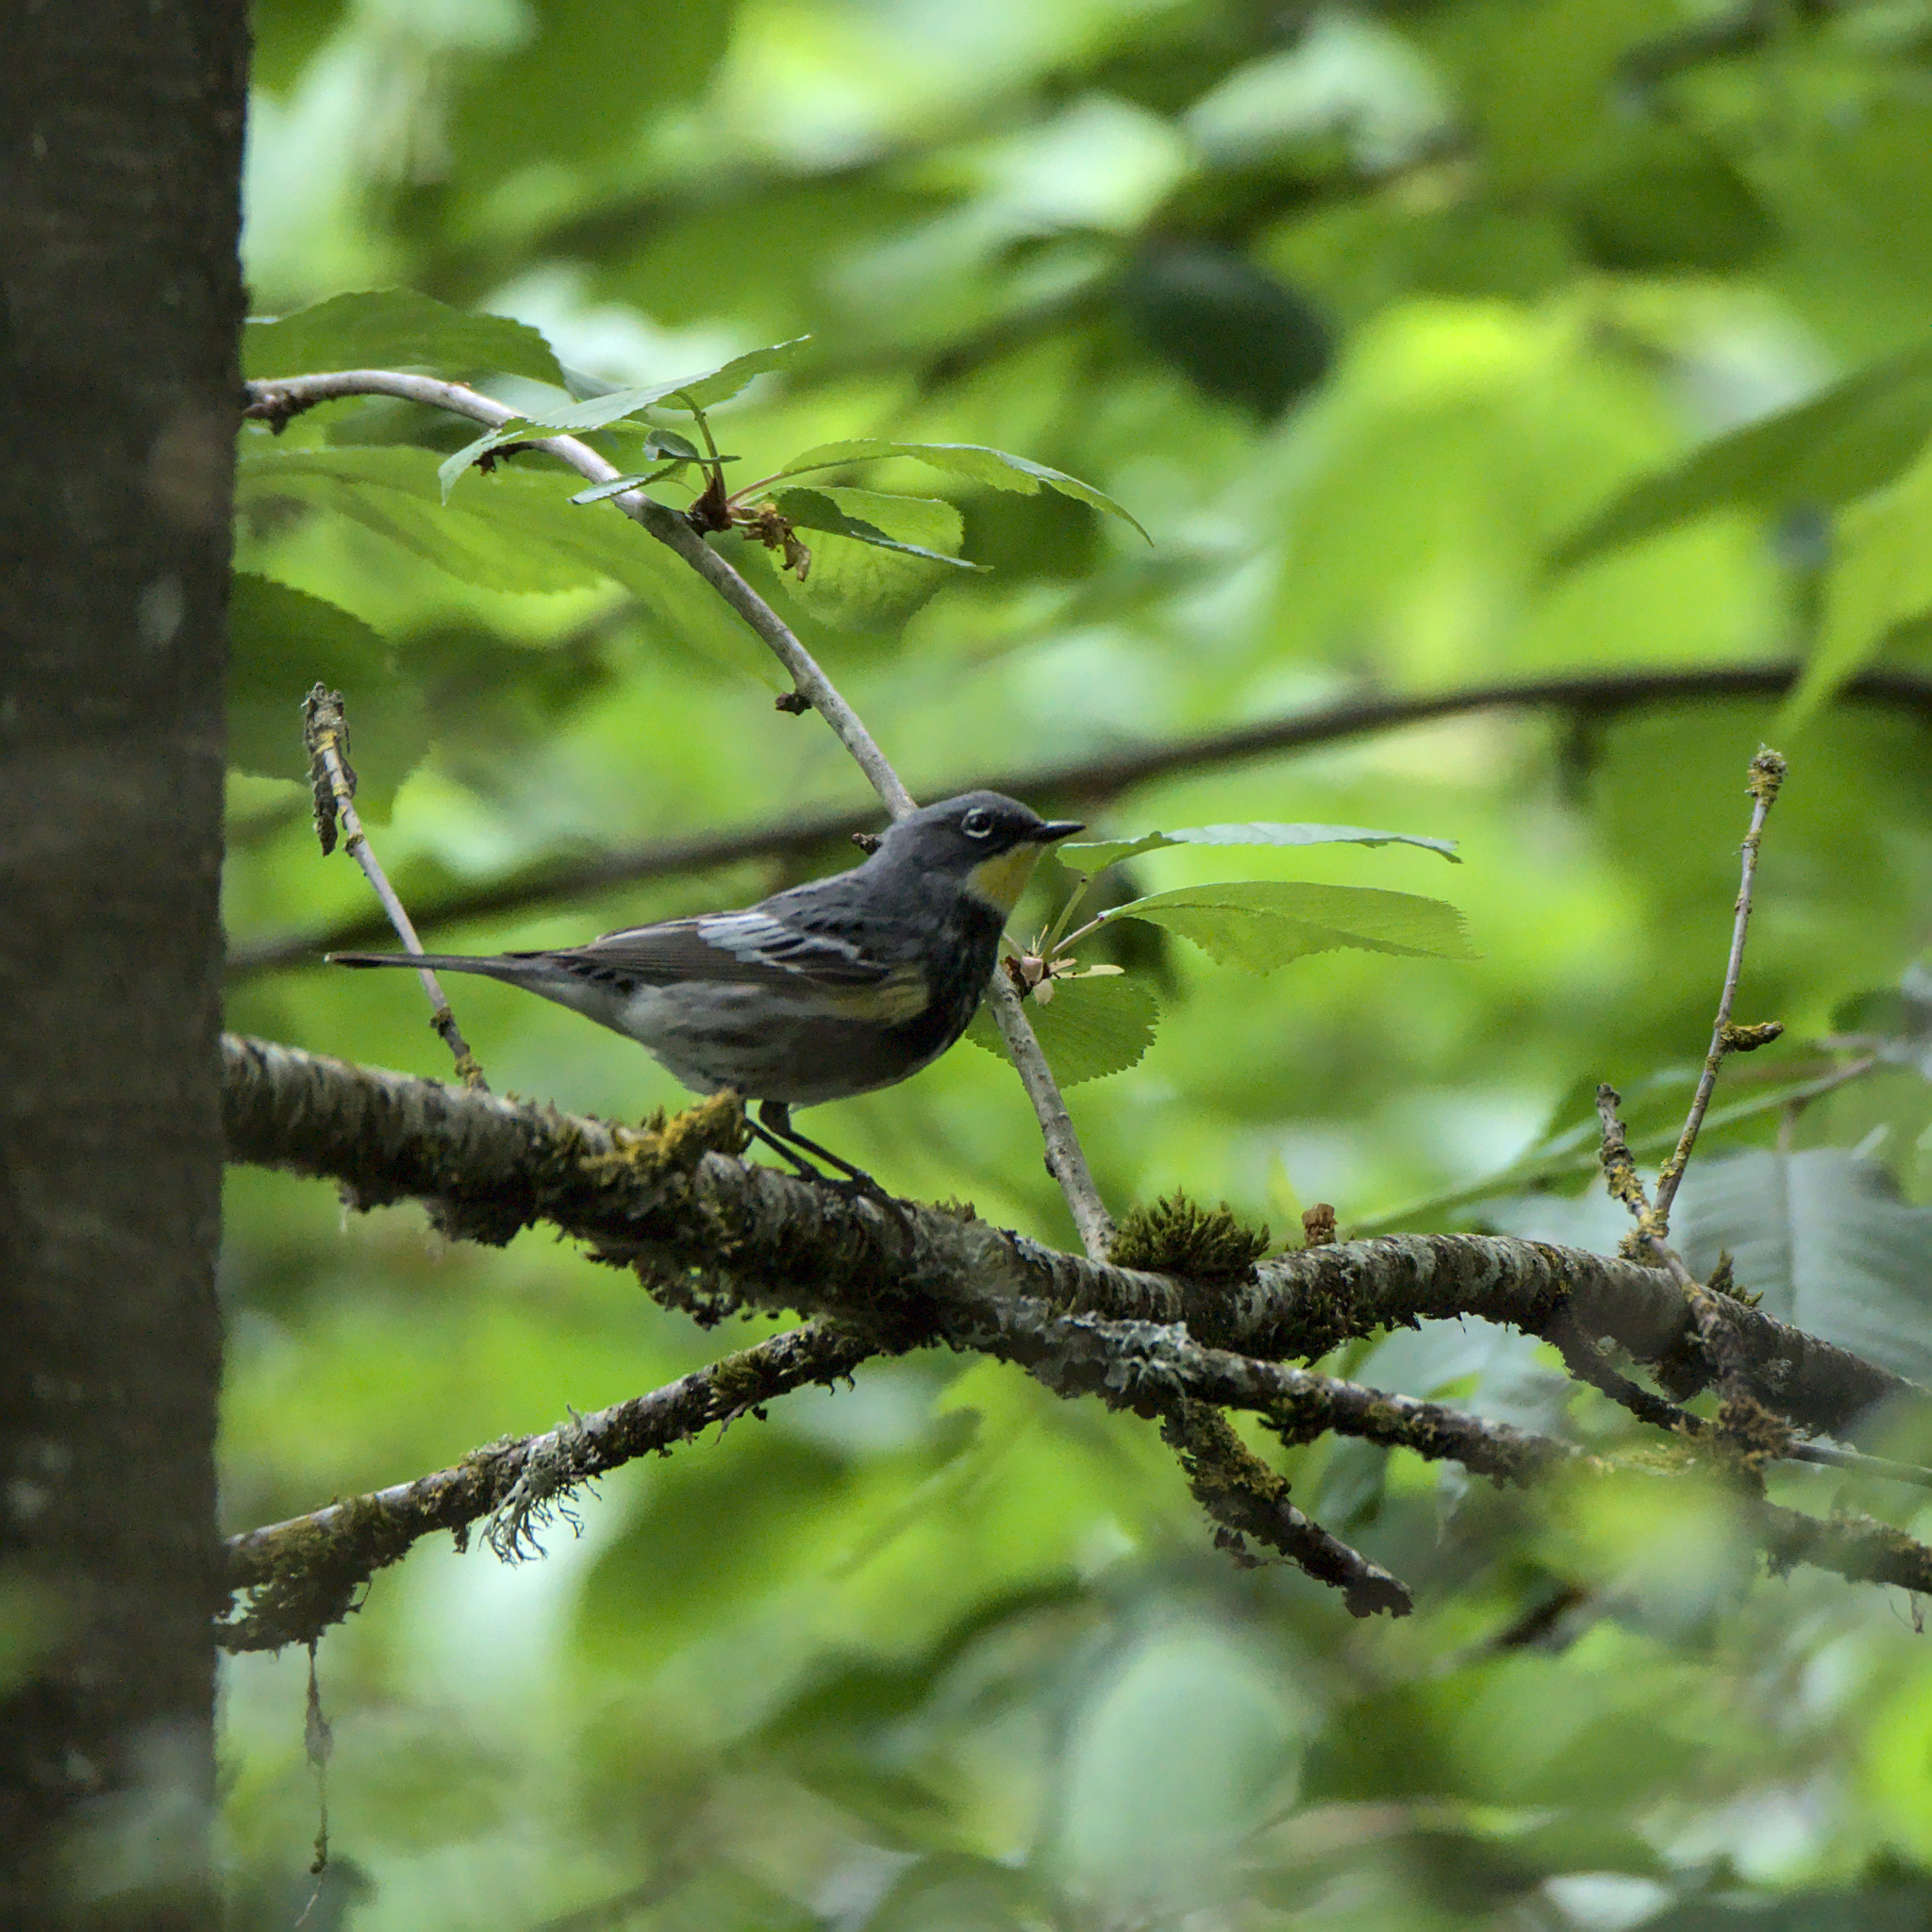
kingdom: Animalia
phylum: Chordata
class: Aves
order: Passeriformes
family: Parulidae
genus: Setophaga
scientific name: Setophaga coronata
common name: Myrtle warbler
